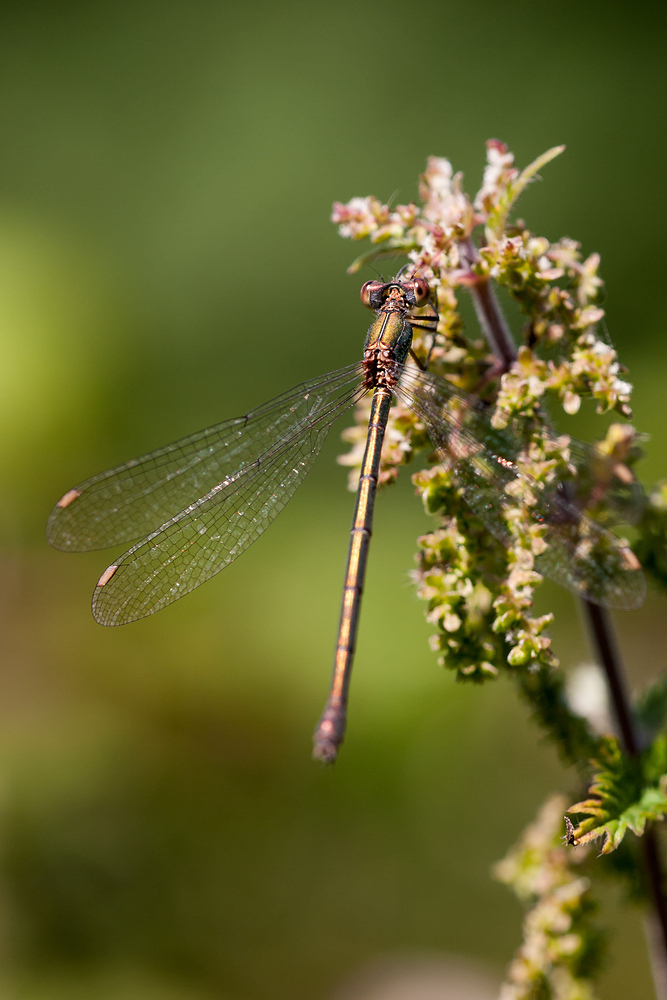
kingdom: Animalia
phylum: Arthropoda
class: Insecta
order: Odonata
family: Lestidae
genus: Chalcolestes
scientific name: Chalcolestes viridis
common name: Green emerald damselfly
